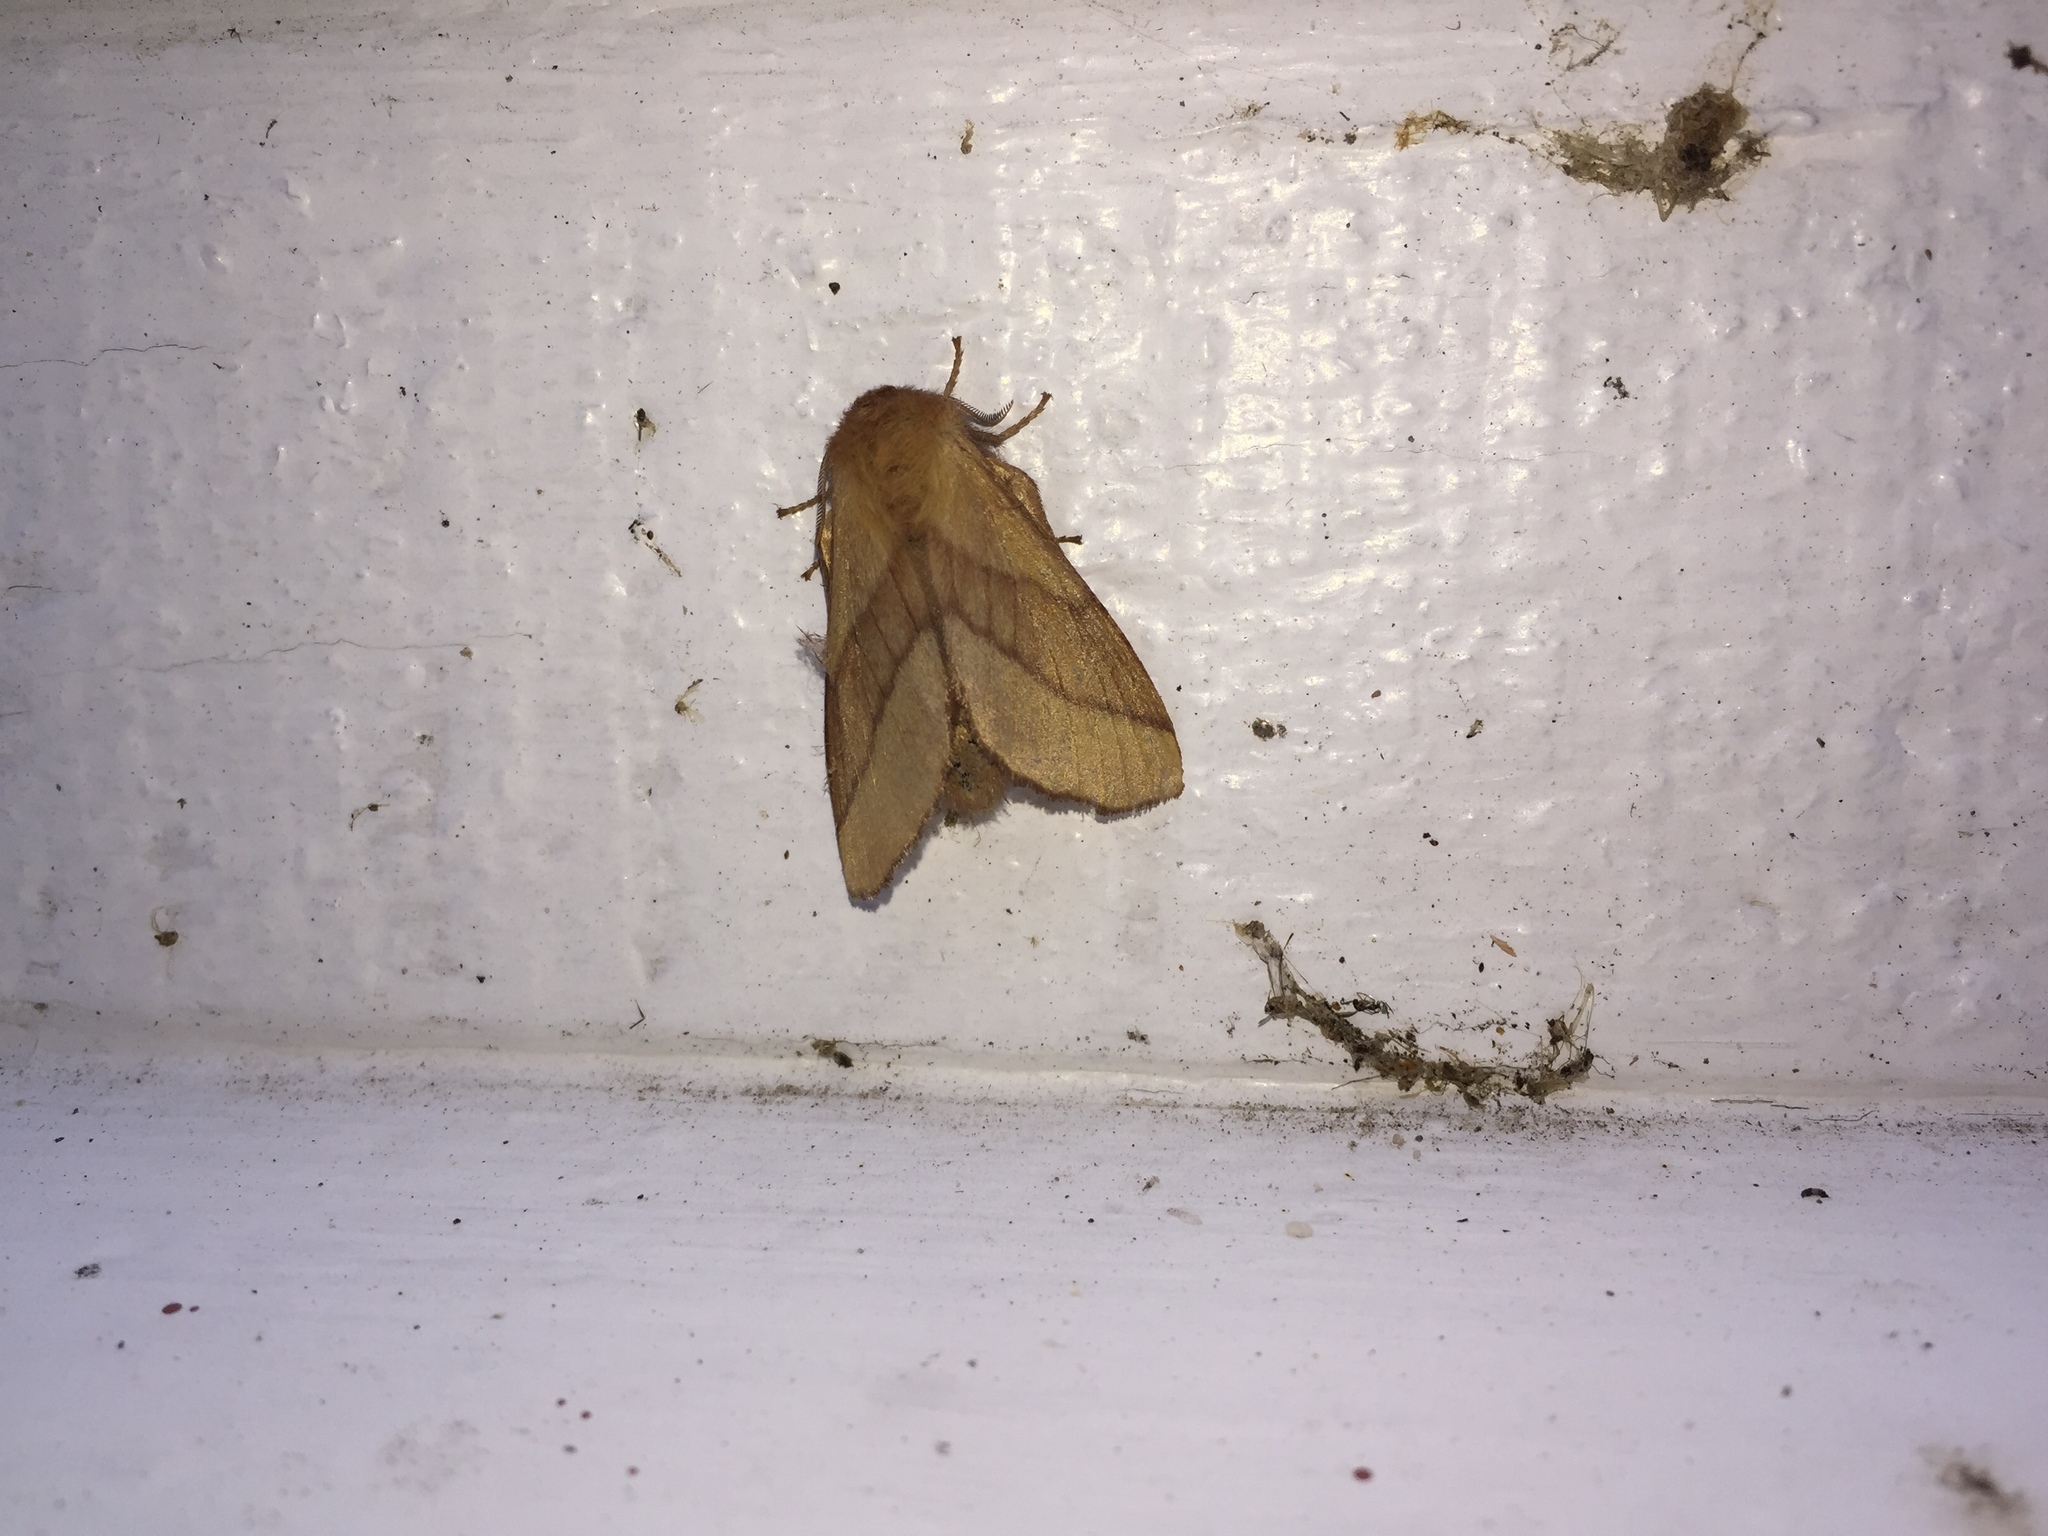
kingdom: Animalia
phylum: Arthropoda
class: Insecta
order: Lepidoptera
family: Lasiocampidae
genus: Malacosoma
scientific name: Malacosoma disstria
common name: Forest tent caterpillar
